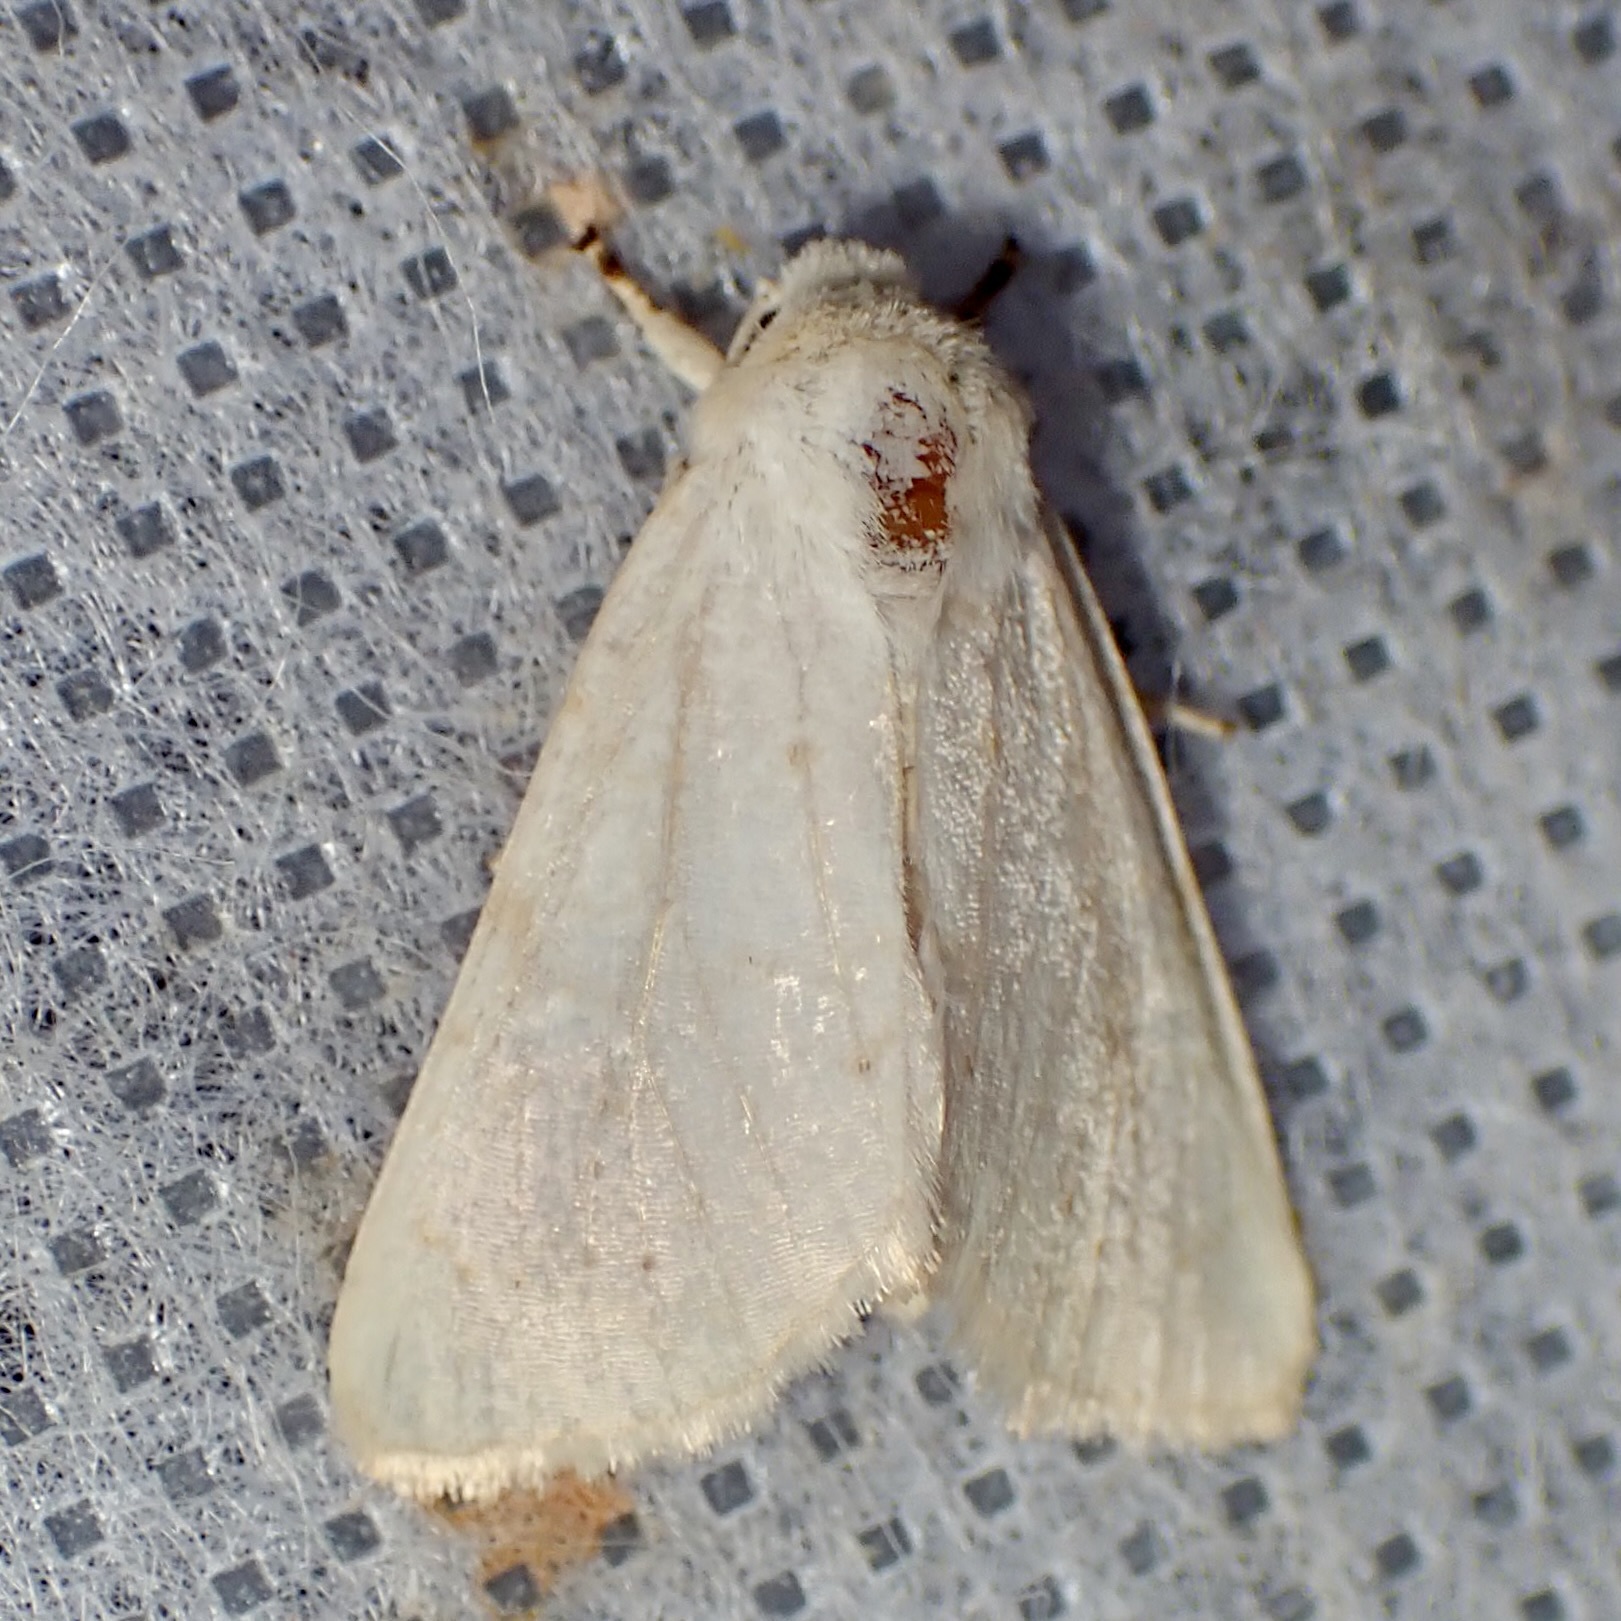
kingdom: Animalia
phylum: Arthropoda
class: Insecta
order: Lepidoptera
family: Noctuidae
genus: Oslaria
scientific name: Oslaria pura
